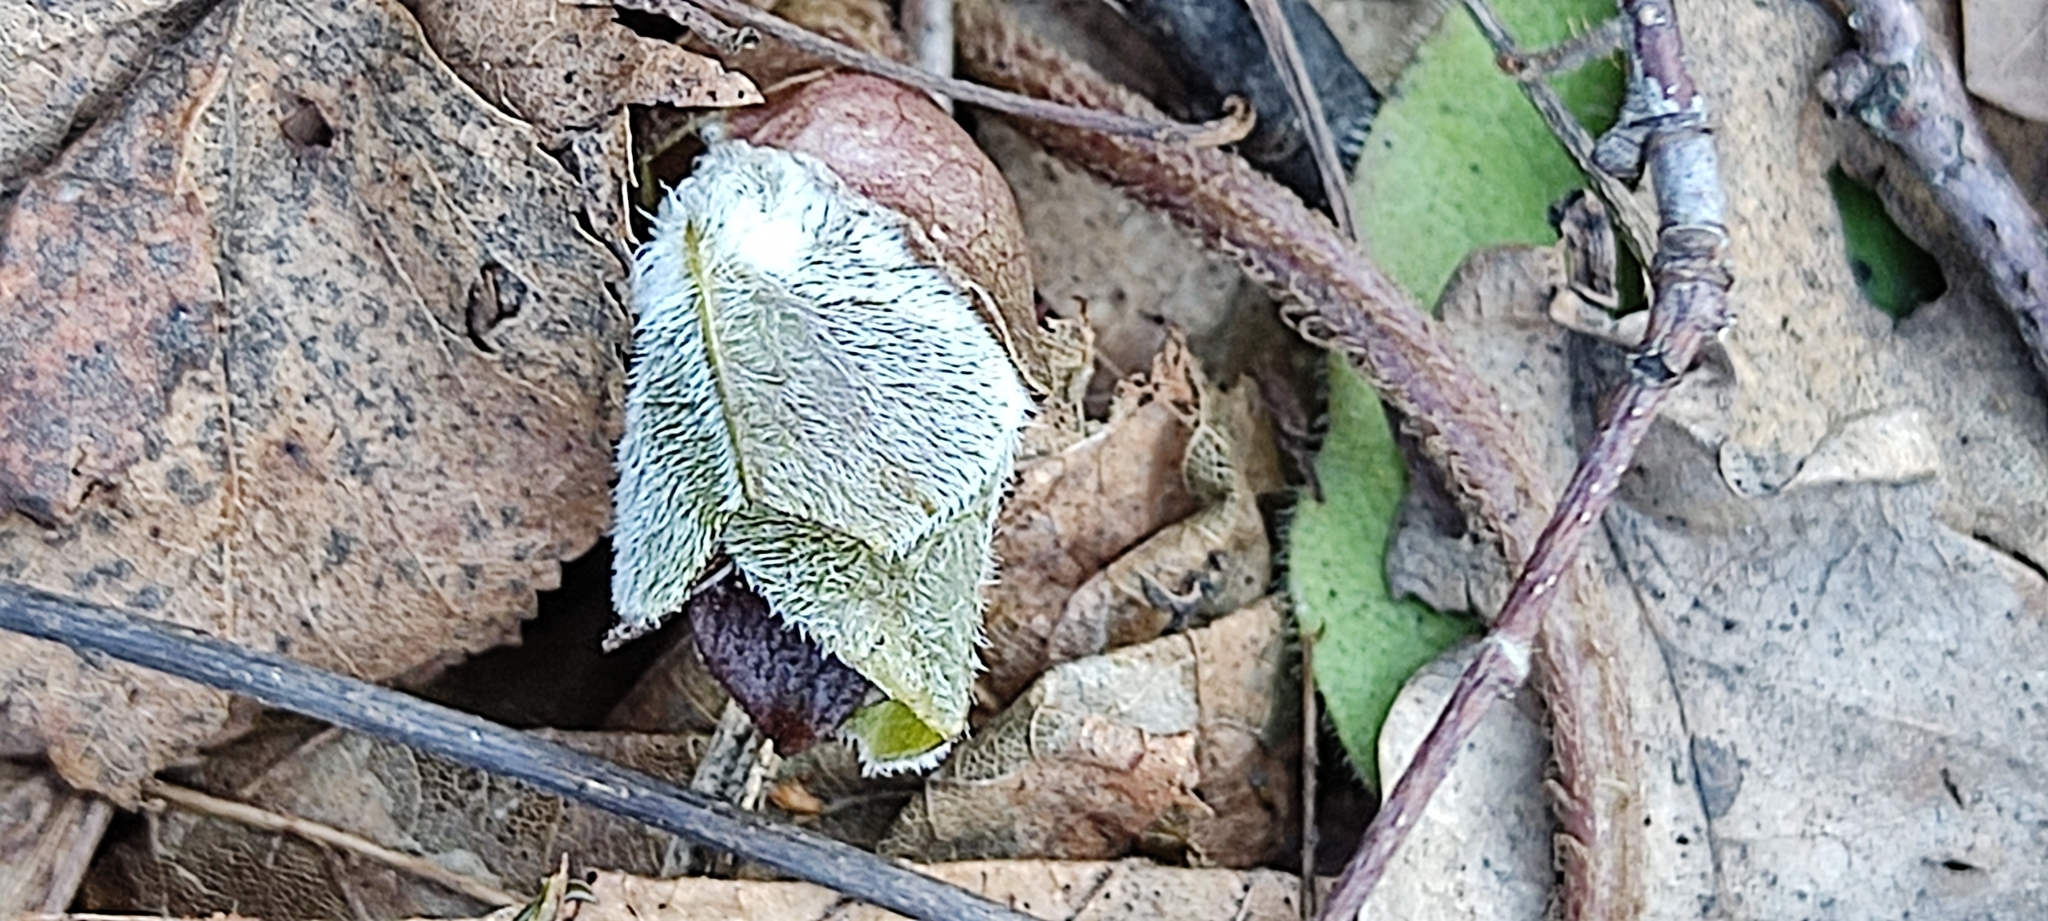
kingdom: Plantae
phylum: Tracheophyta
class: Magnoliopsida
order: Piperales
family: Aristolochiaceae
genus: Asarum
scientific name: Asarum europaeum
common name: Asarabacca
